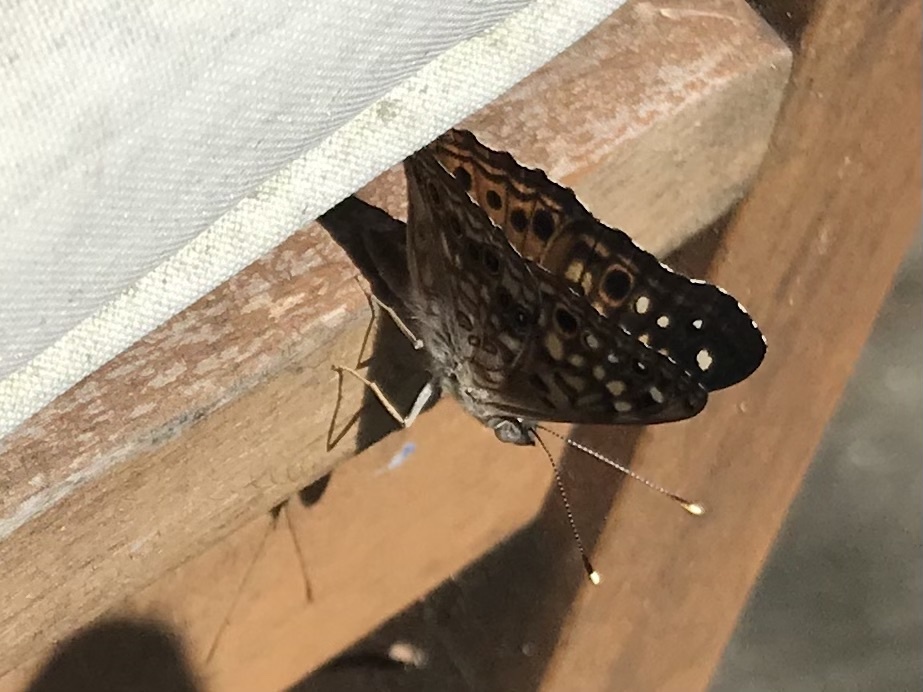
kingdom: Animalia
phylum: Arthropoda
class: Insecta
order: Lepidoptera
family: Nymphalidae
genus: Asterocampa
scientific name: Asterocampa celtis
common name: Hackberry emperor
